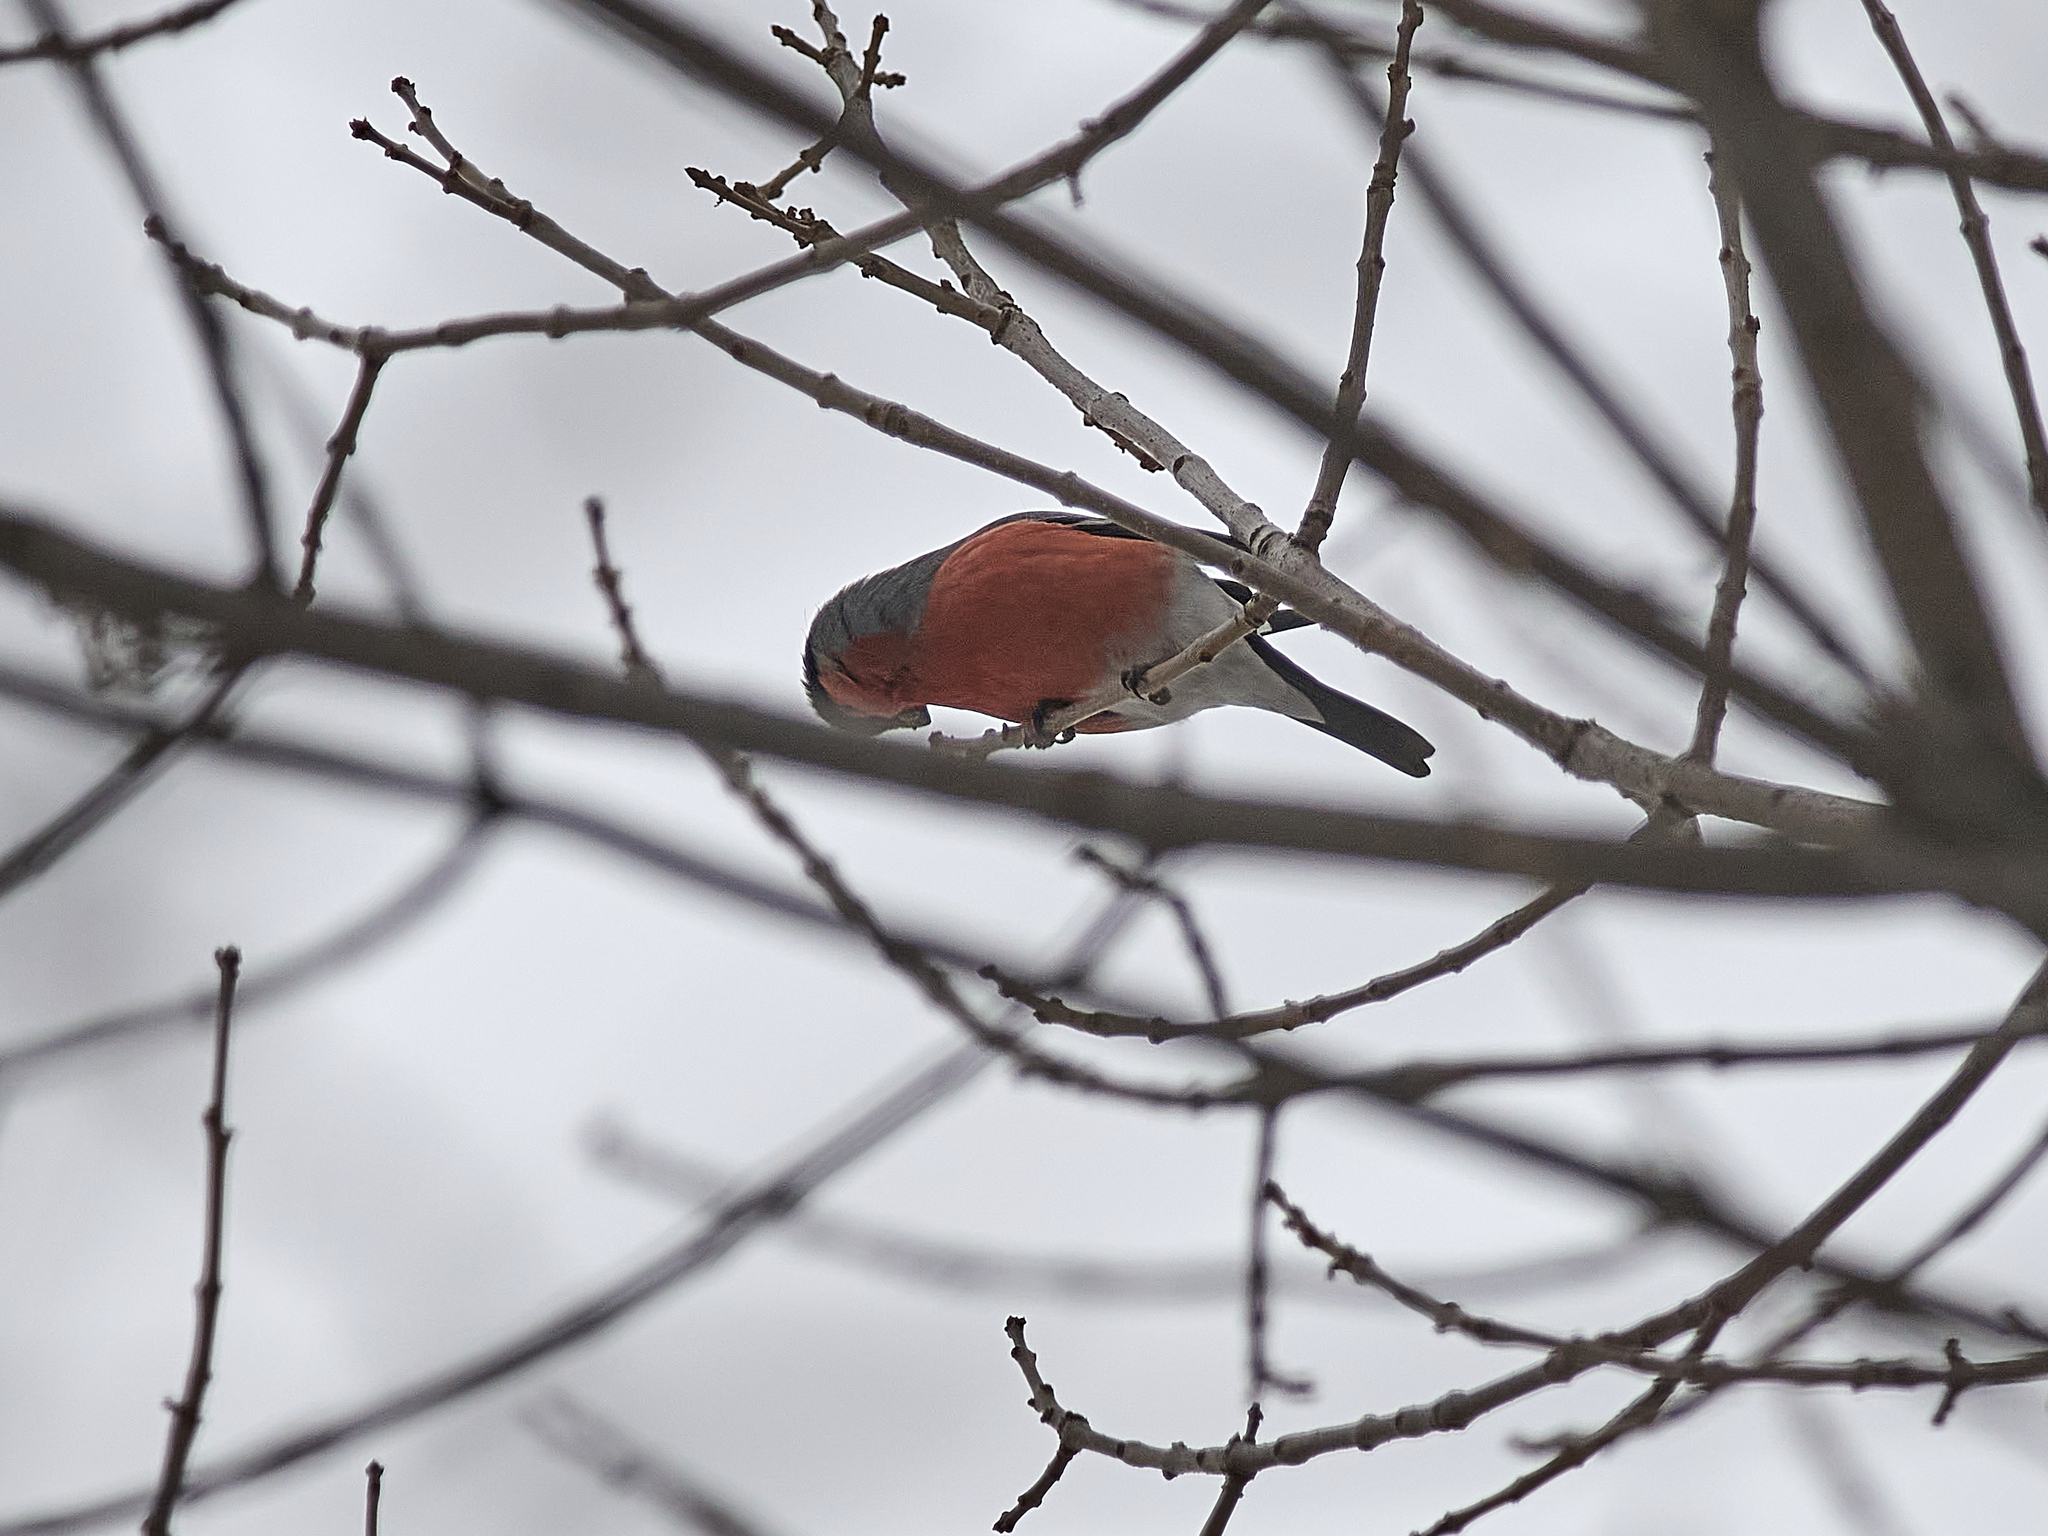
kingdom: Animalia
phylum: Chordata
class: Aves
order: Passeriformes
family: Fringillidae
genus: Pyrrhula
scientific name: Pyrrhula pyrrhula
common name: Eurasian bullfinch
